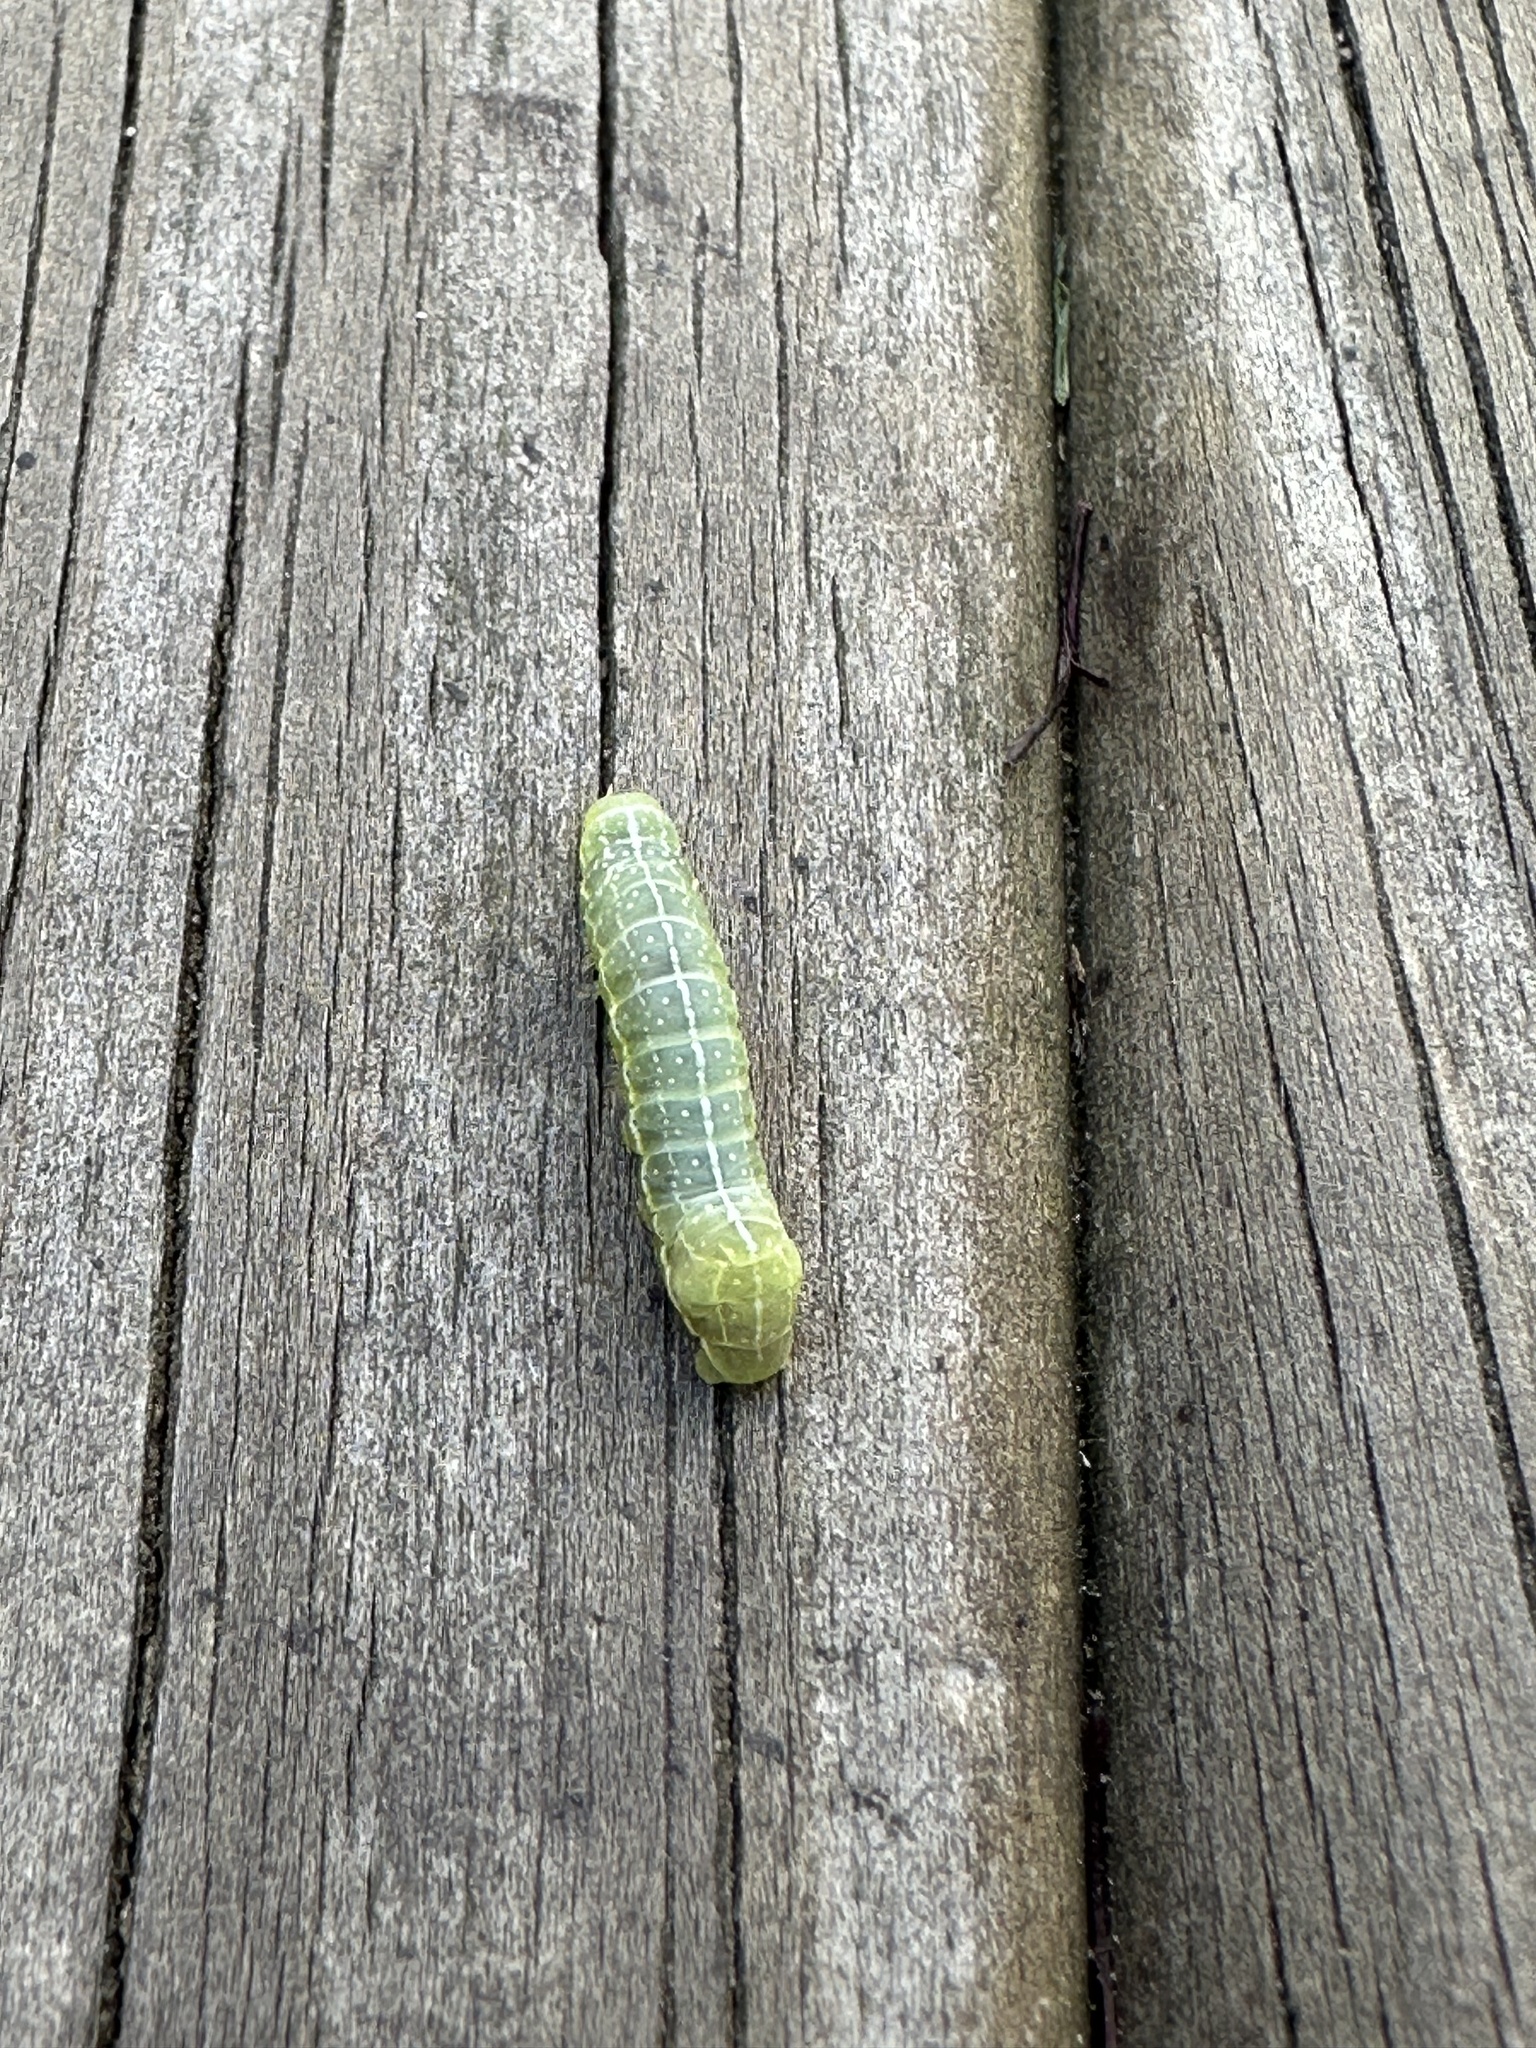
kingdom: Animalia
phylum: Arthropoda
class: Insecta
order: Lepidoptera
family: Noctuidae
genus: Amphipyra
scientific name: Amphipyra pyramidoides
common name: American copper underwing
